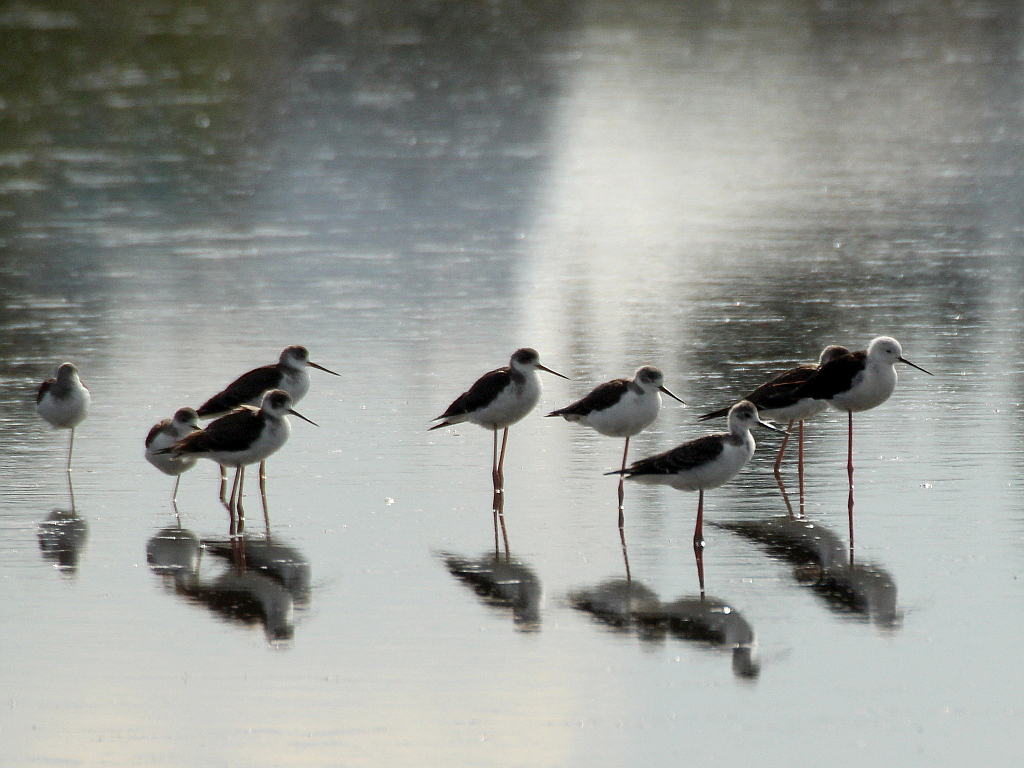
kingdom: Animalia
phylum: Chordata
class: Aves
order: Charadriiformes
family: Recurvirostridae
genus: Himantopus
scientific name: Himantopus himantopus
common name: Black-winged stilt
